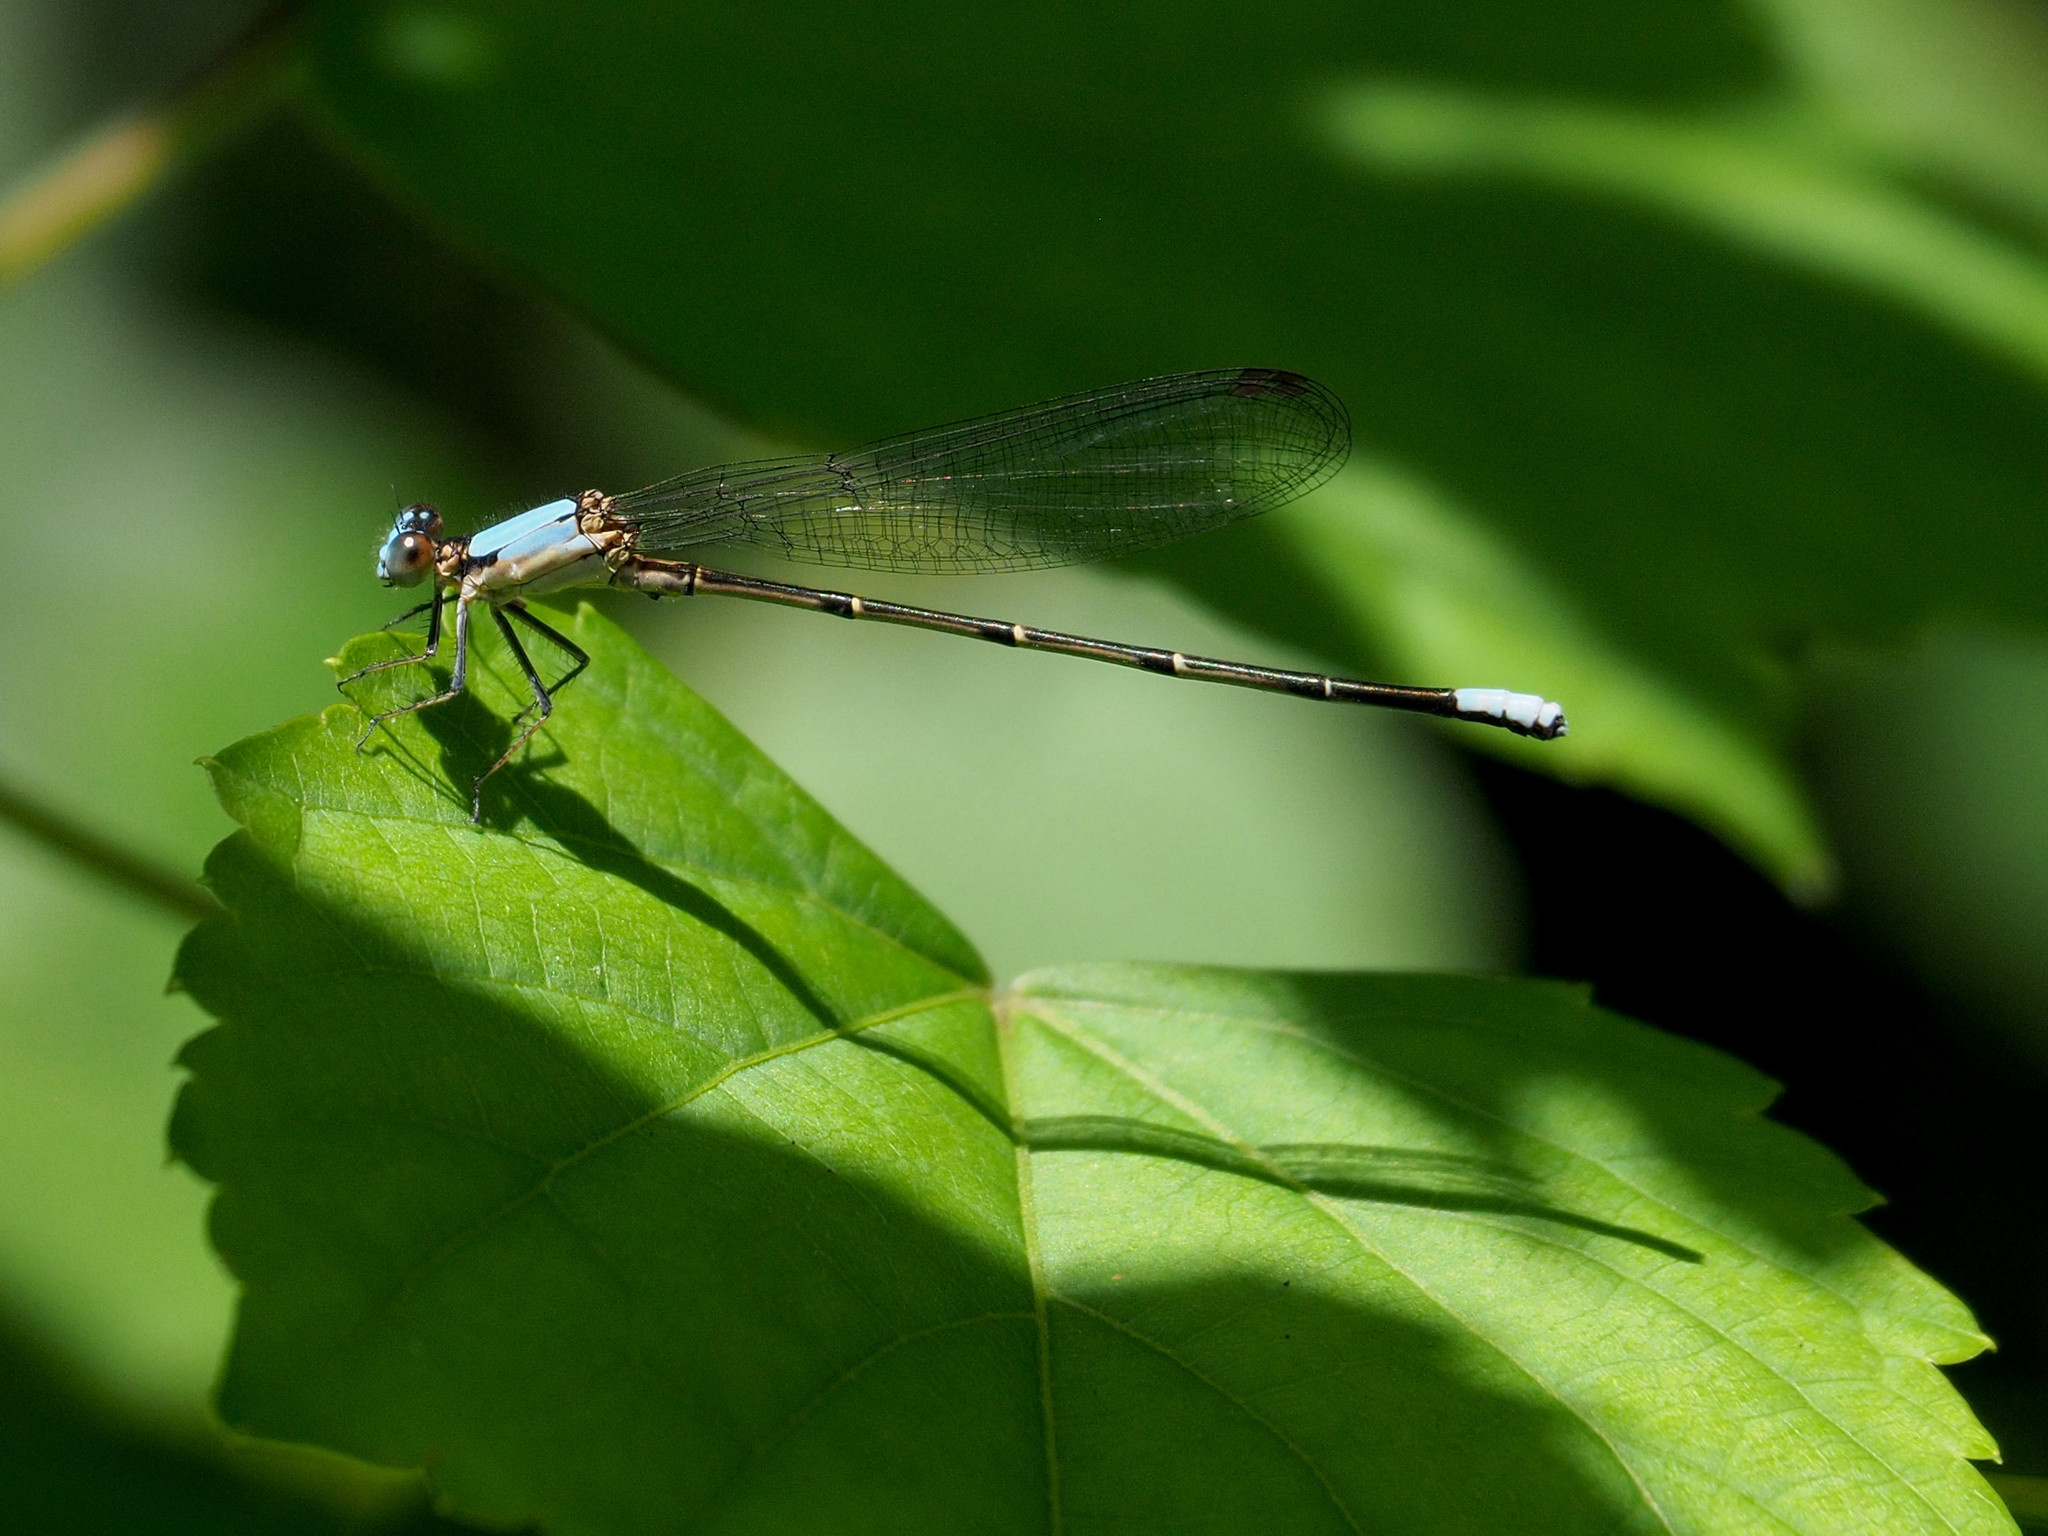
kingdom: Animalia
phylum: Arthropoda
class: Insecta
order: Odonata
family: Coenagrionidae
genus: Argia
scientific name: Argia apicalis
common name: Blue-fronted dancer
